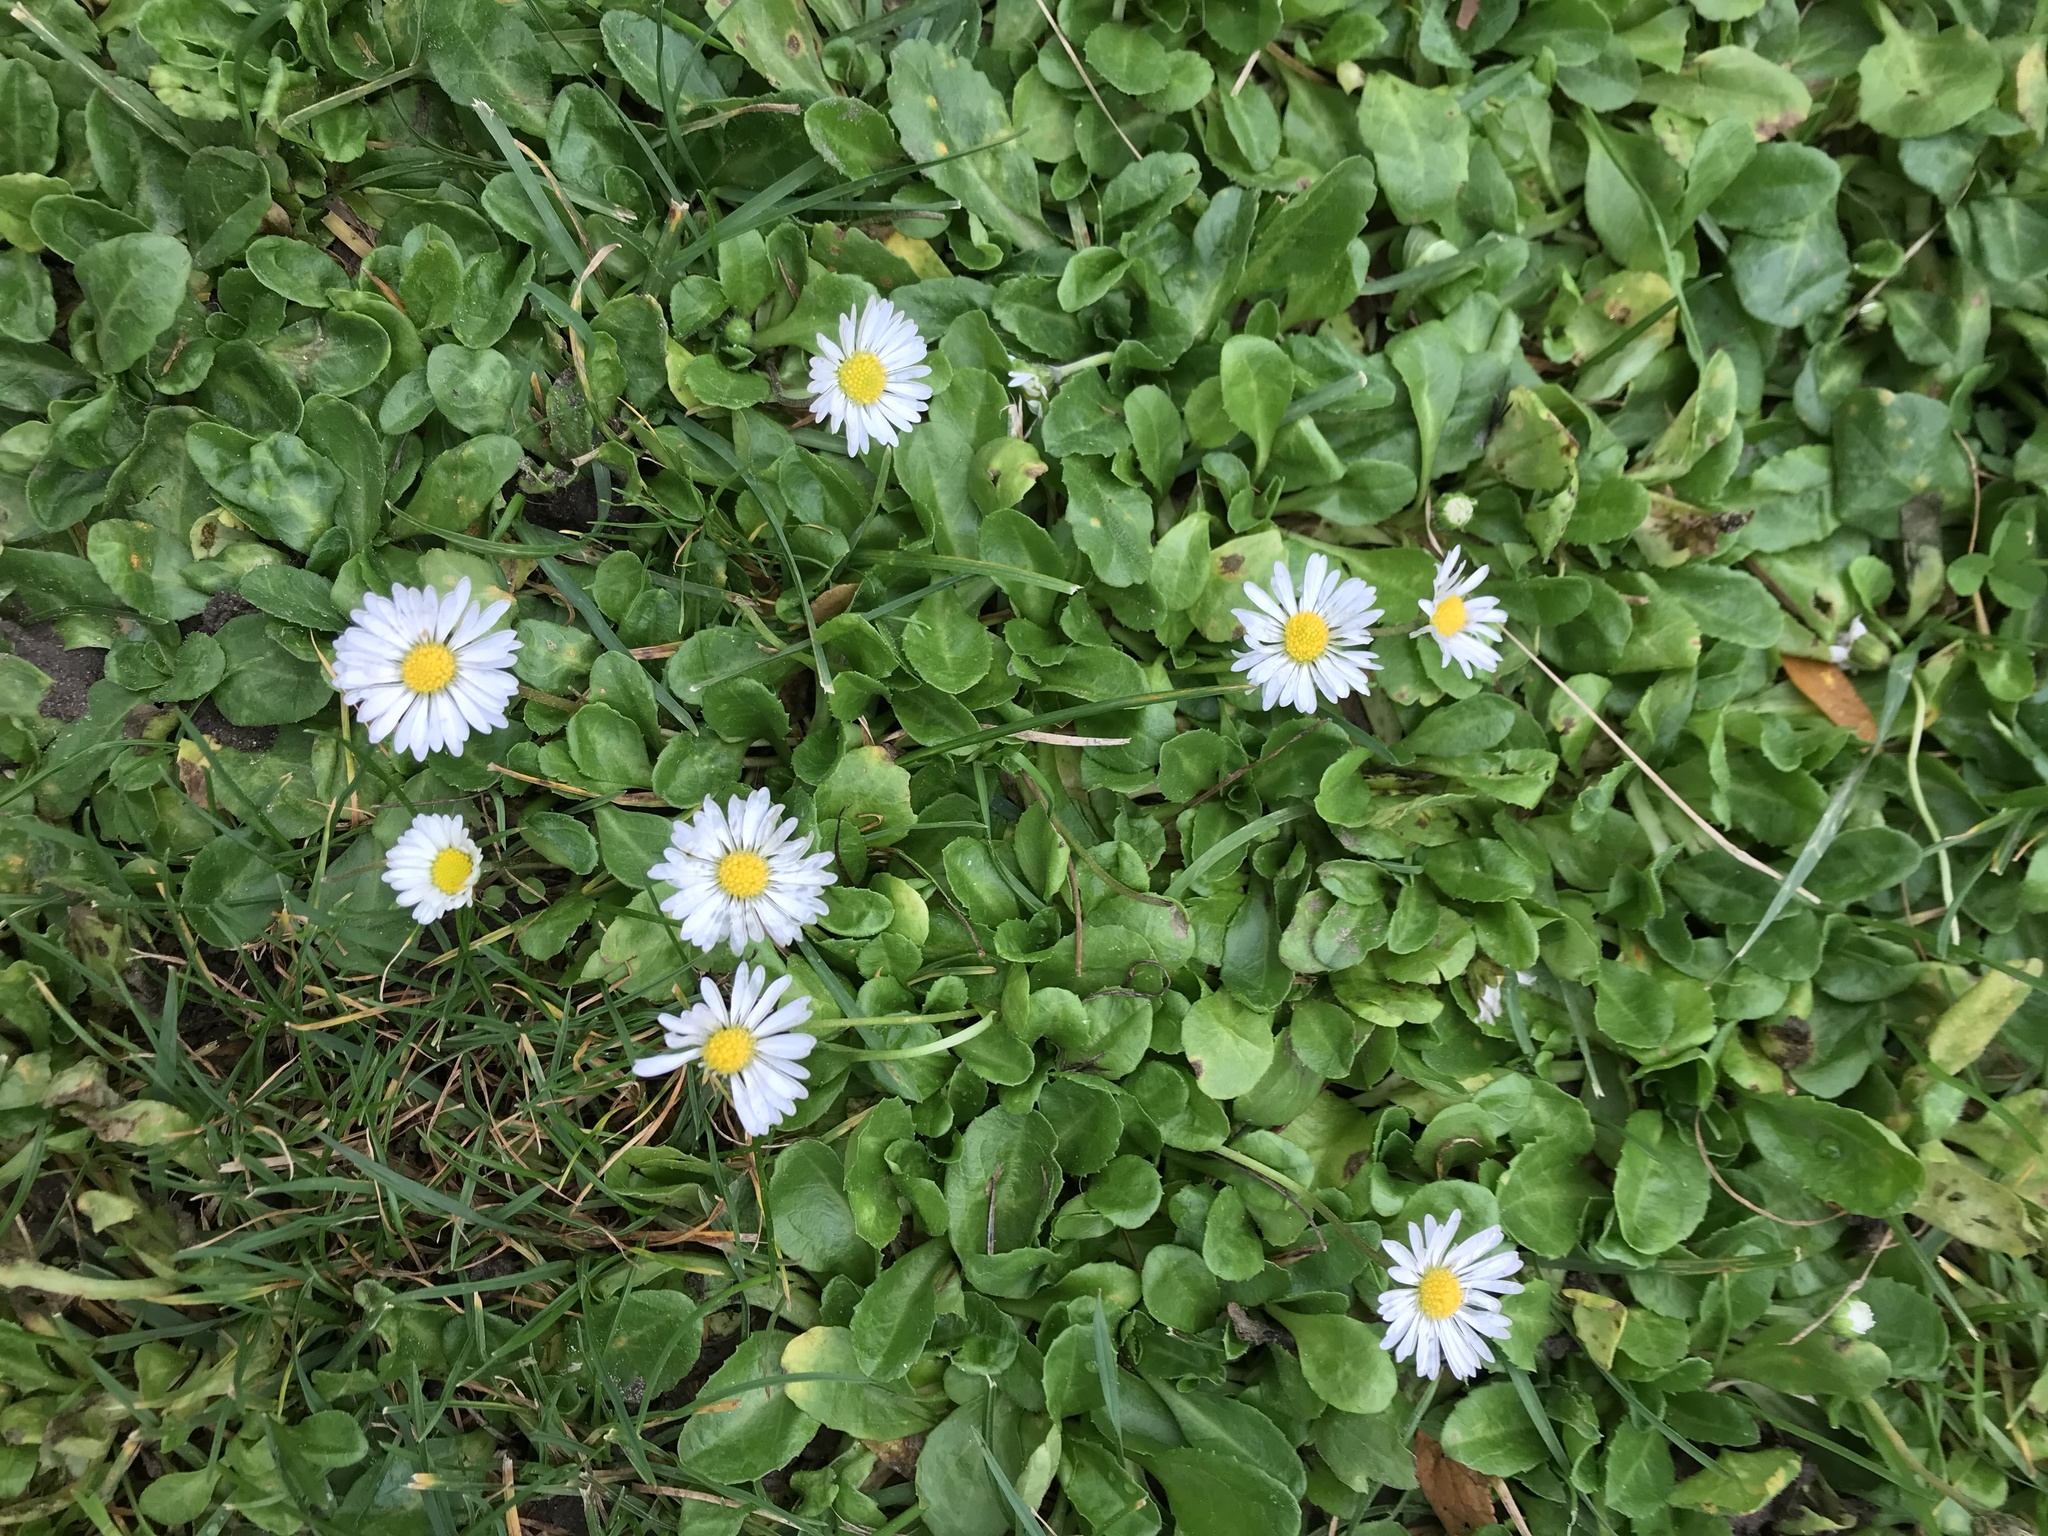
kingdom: Plantae
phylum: Tracheophyta
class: Magnoliopsida
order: Asterales
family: Asteraceae
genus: Bellis
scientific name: Bellis perennis
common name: Lawndaisy
